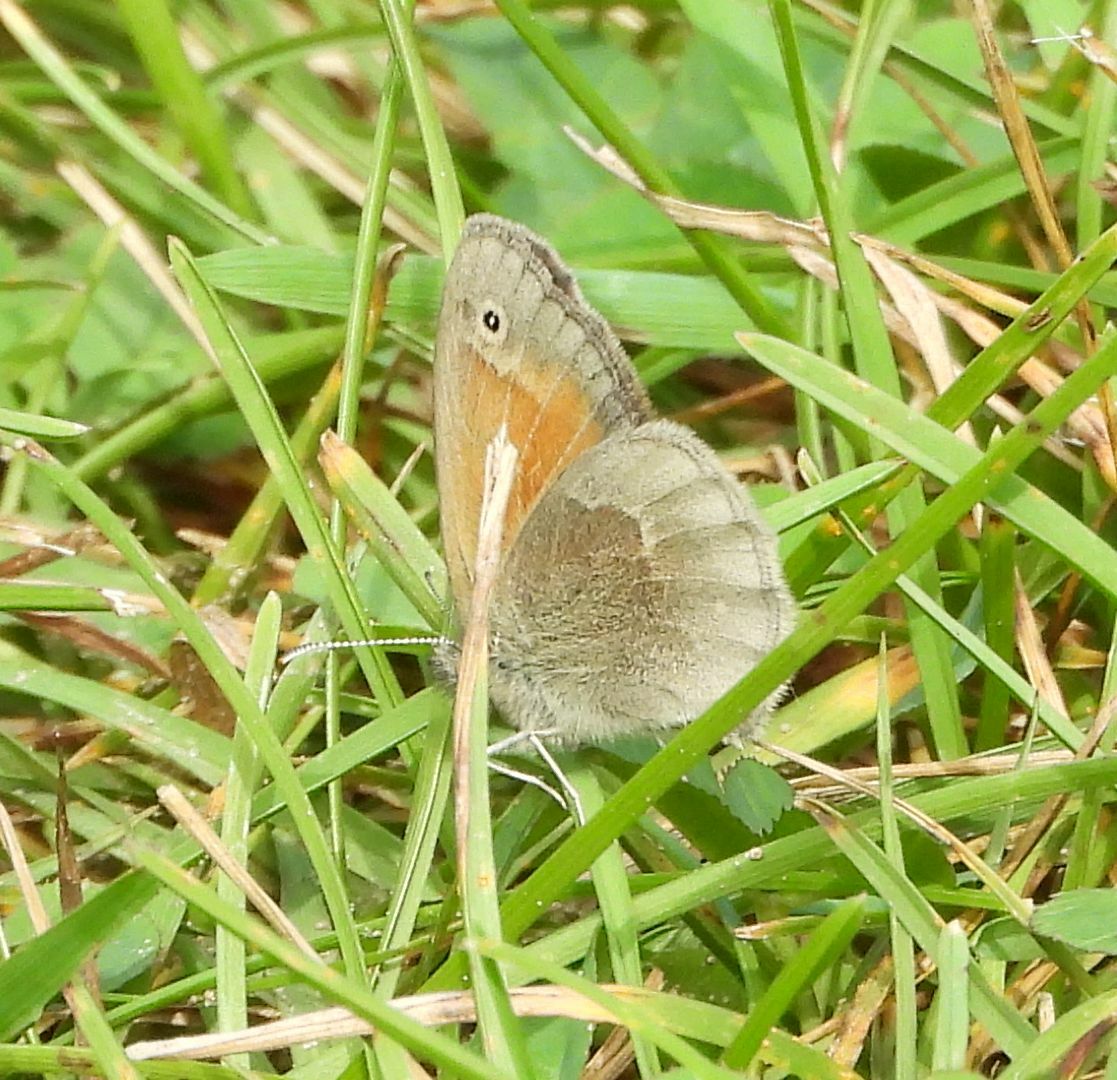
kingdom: Animalia
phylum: Arthropoda
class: Insecta
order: Lepidoptera
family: Nymphalidae
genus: Coenonympha
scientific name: Coenonympha california
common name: Common ringlet
